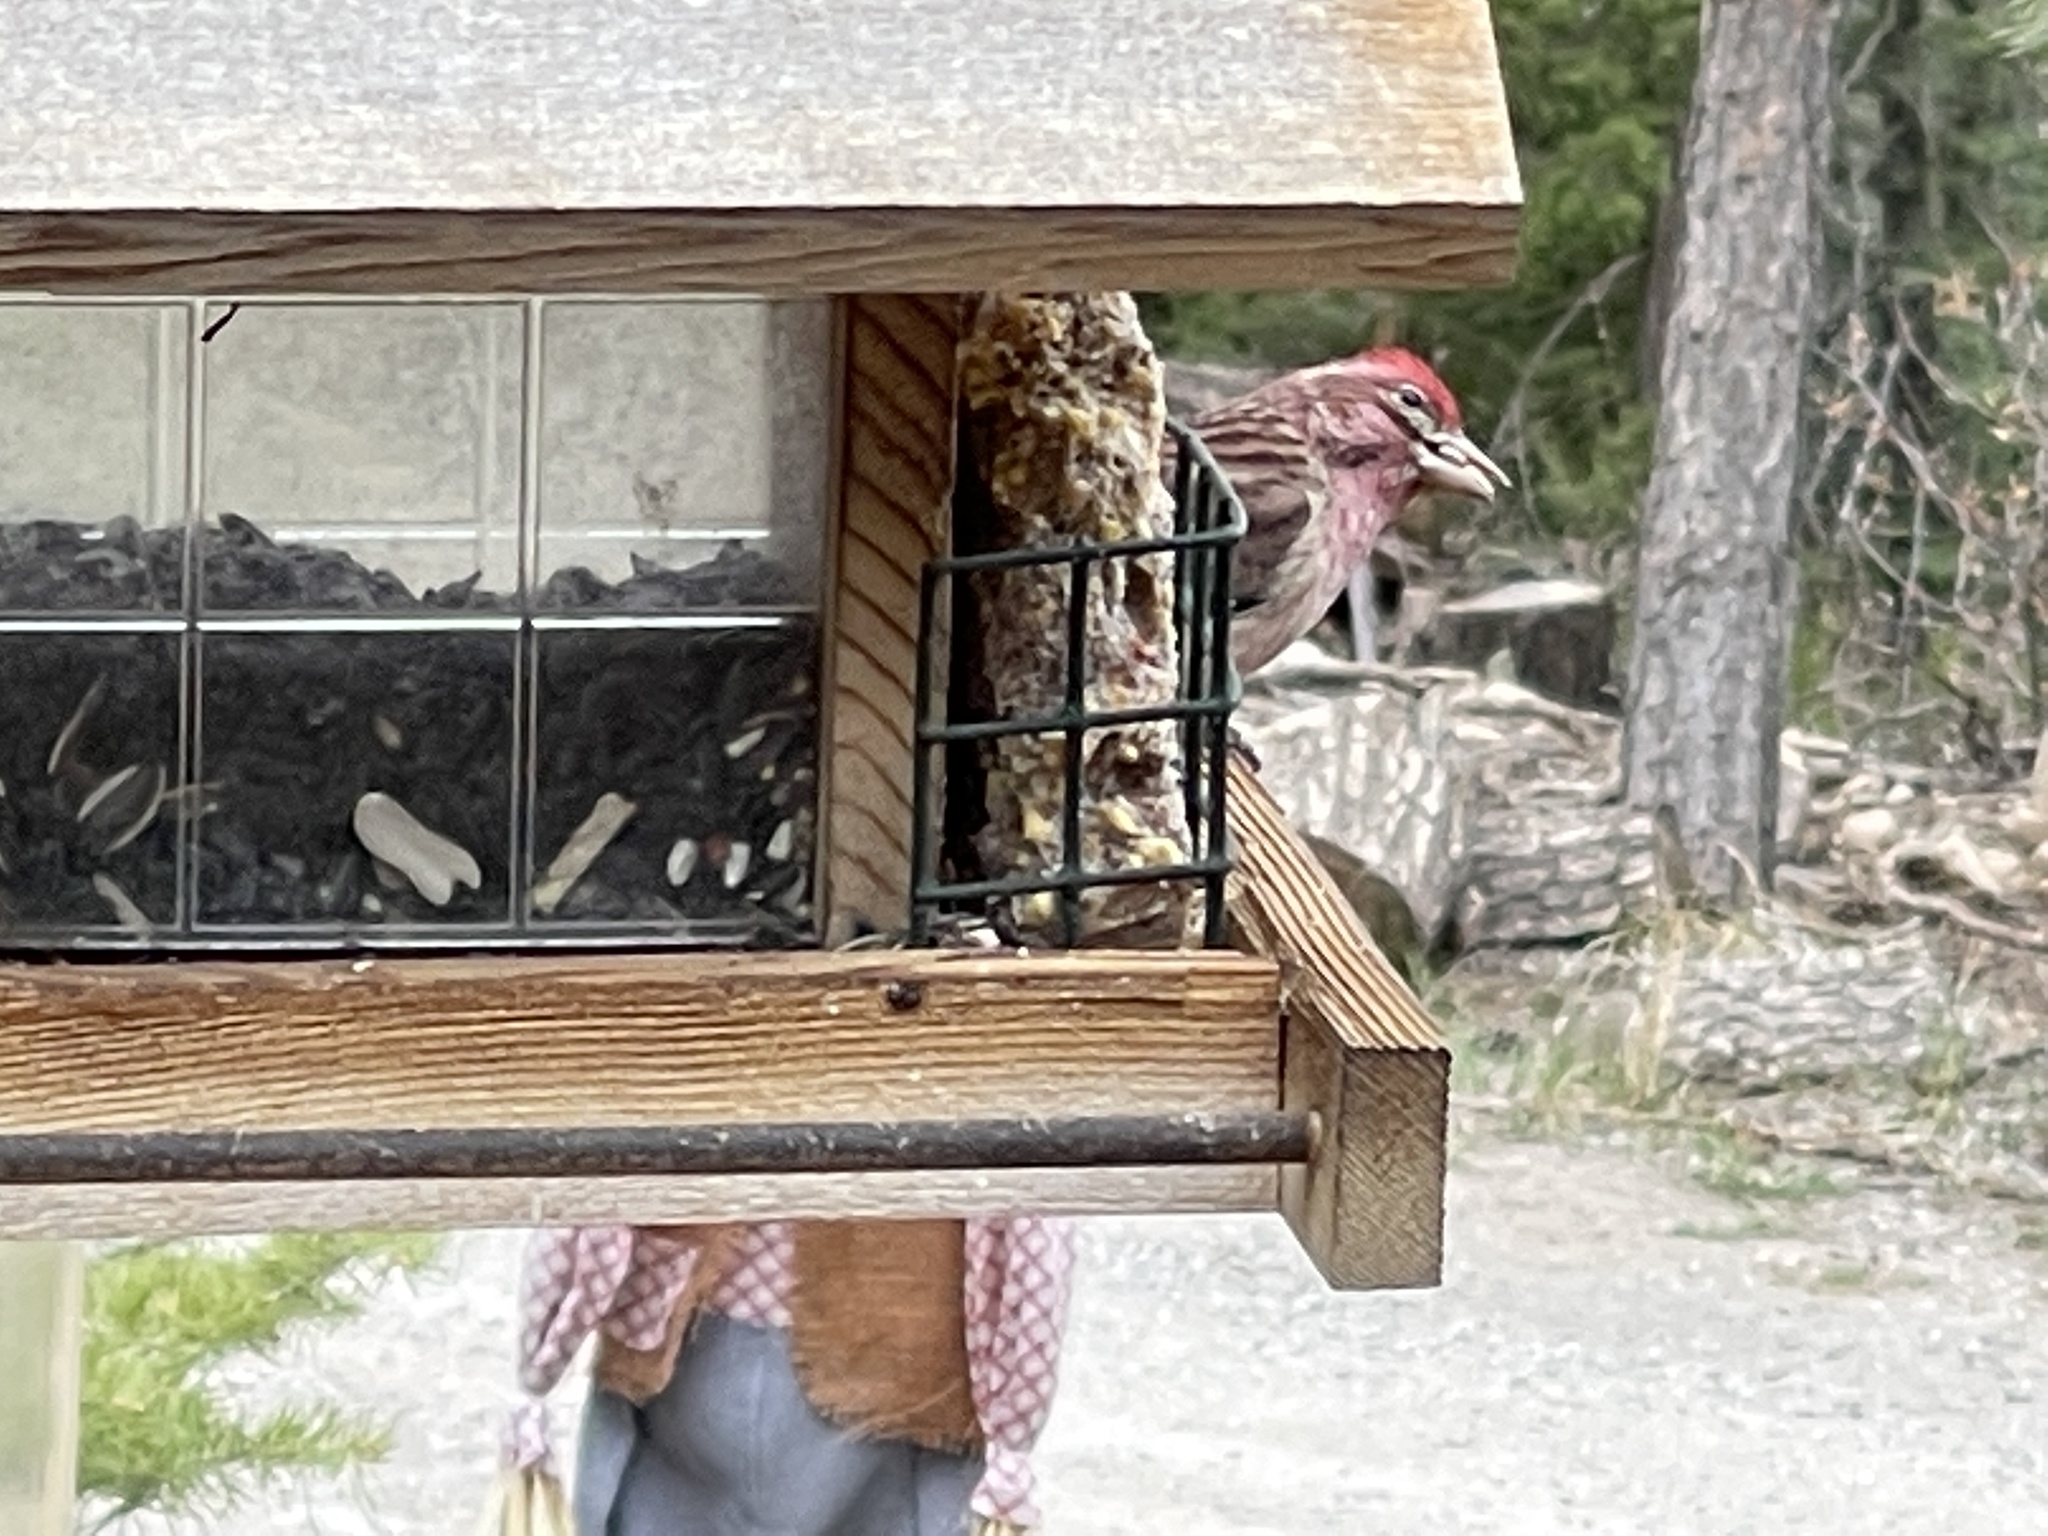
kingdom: Animalia
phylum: Chordata
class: Aves
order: Passeriformes
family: Fringillidae
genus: Haemorhous
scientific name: Haemorhous cassinii
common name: Cassin's finch
